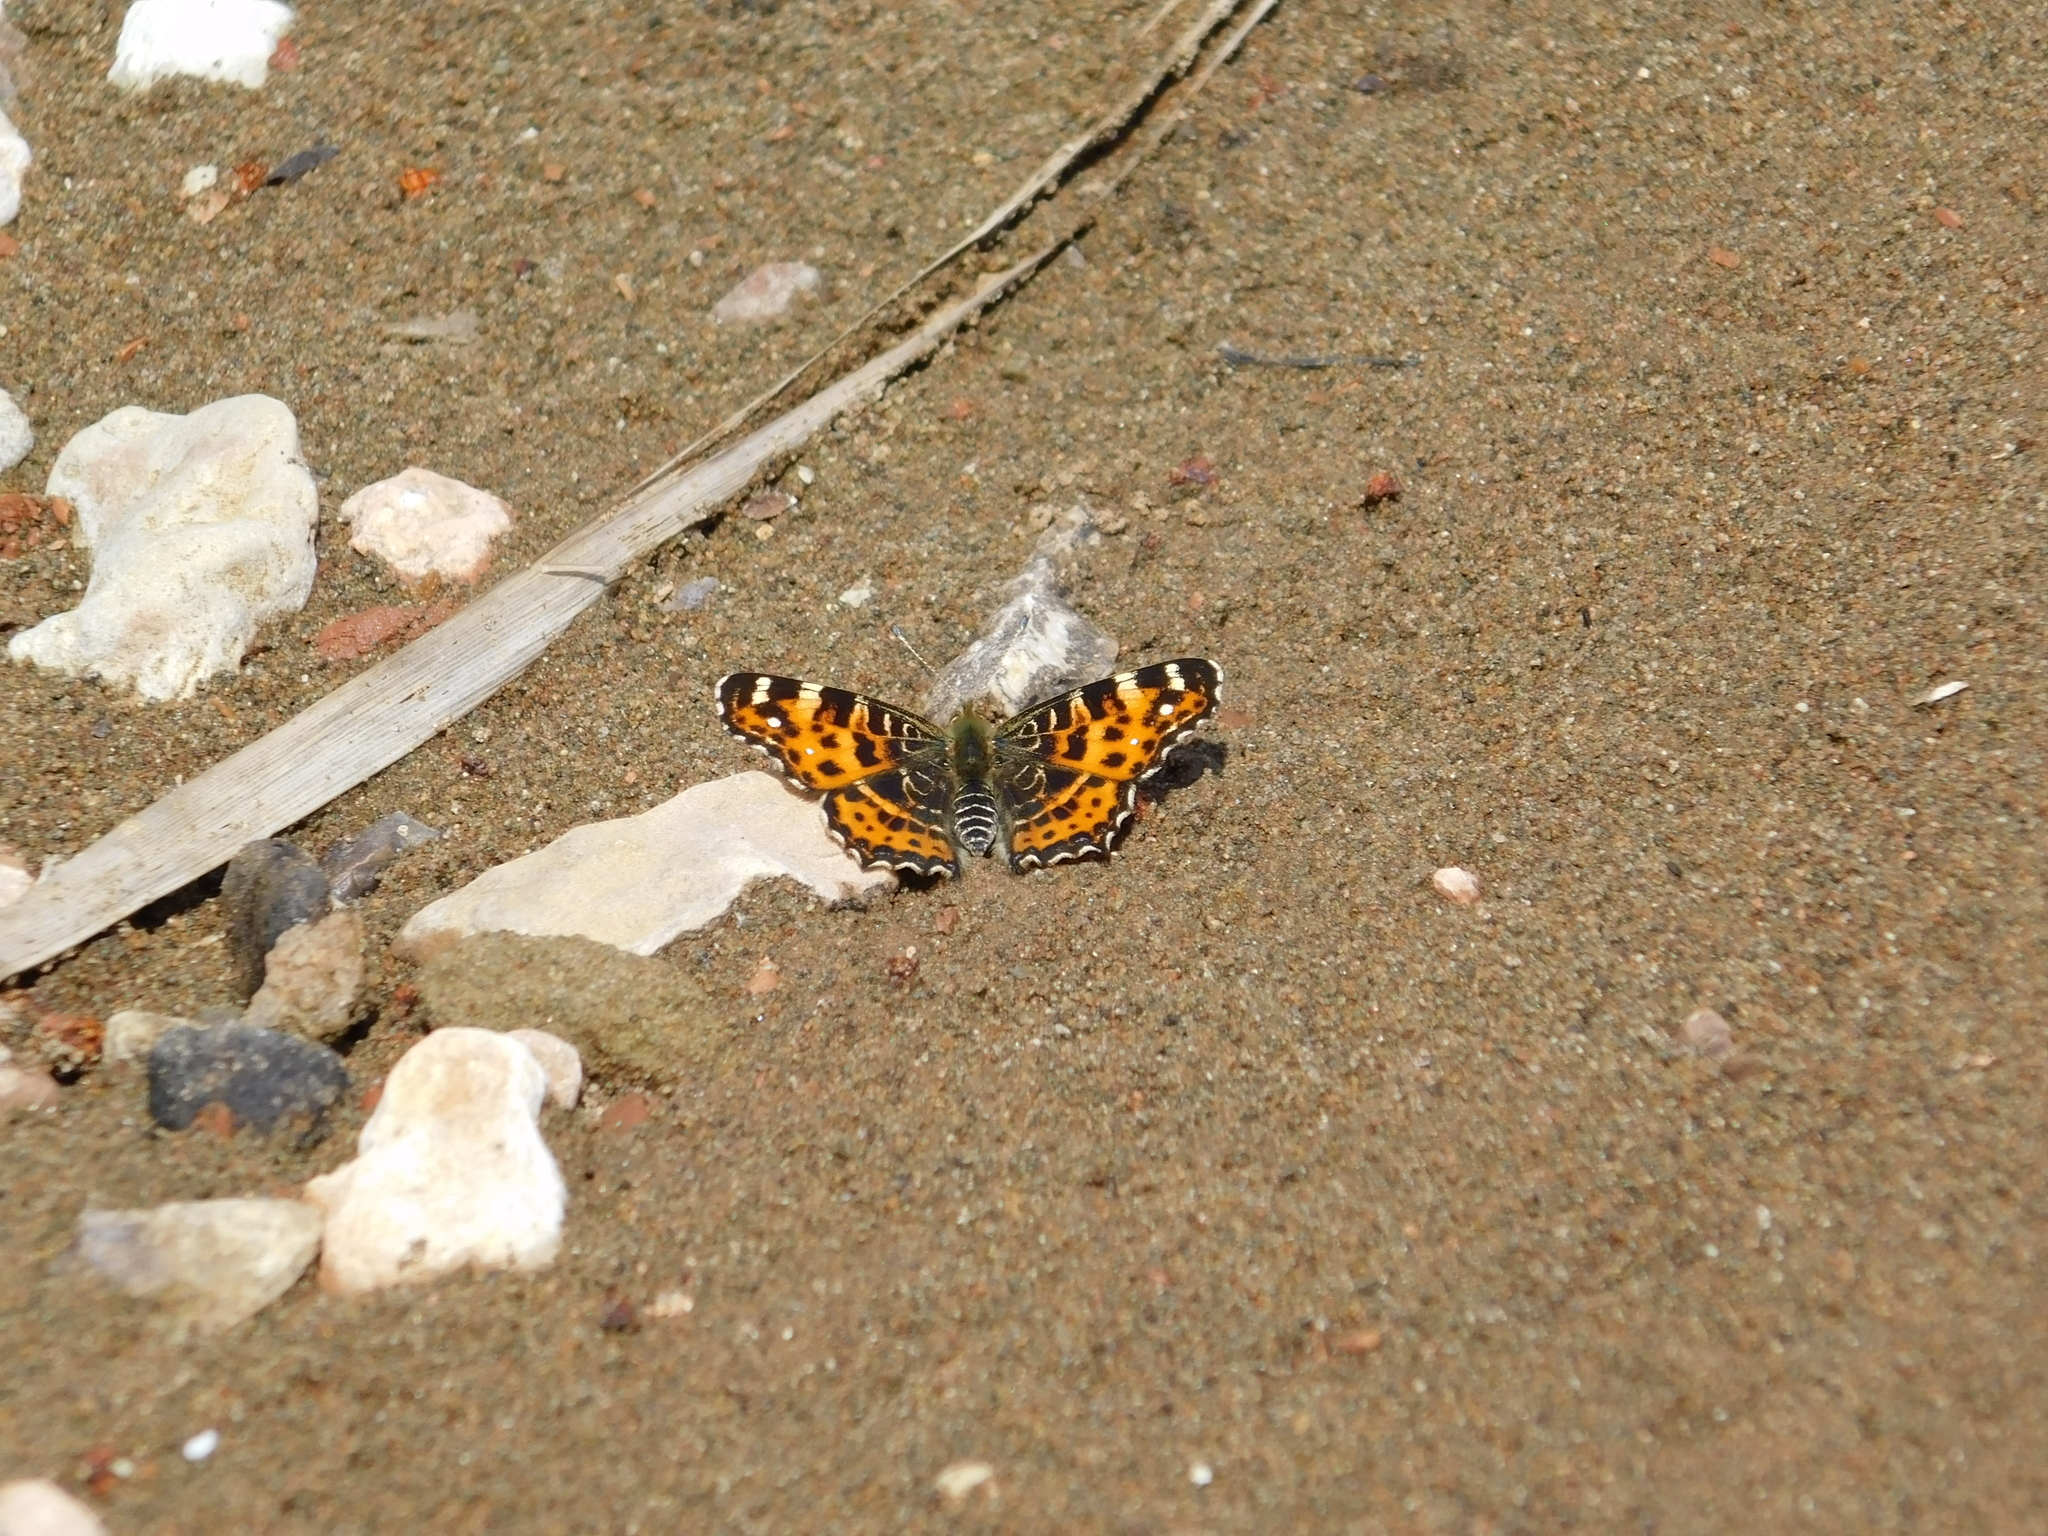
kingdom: Animalia
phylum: Arthropoda
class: Insecta
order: Lepidoptera
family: Nymphalidae
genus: Araschnia
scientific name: Araschnia levana
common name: Map butterfly
